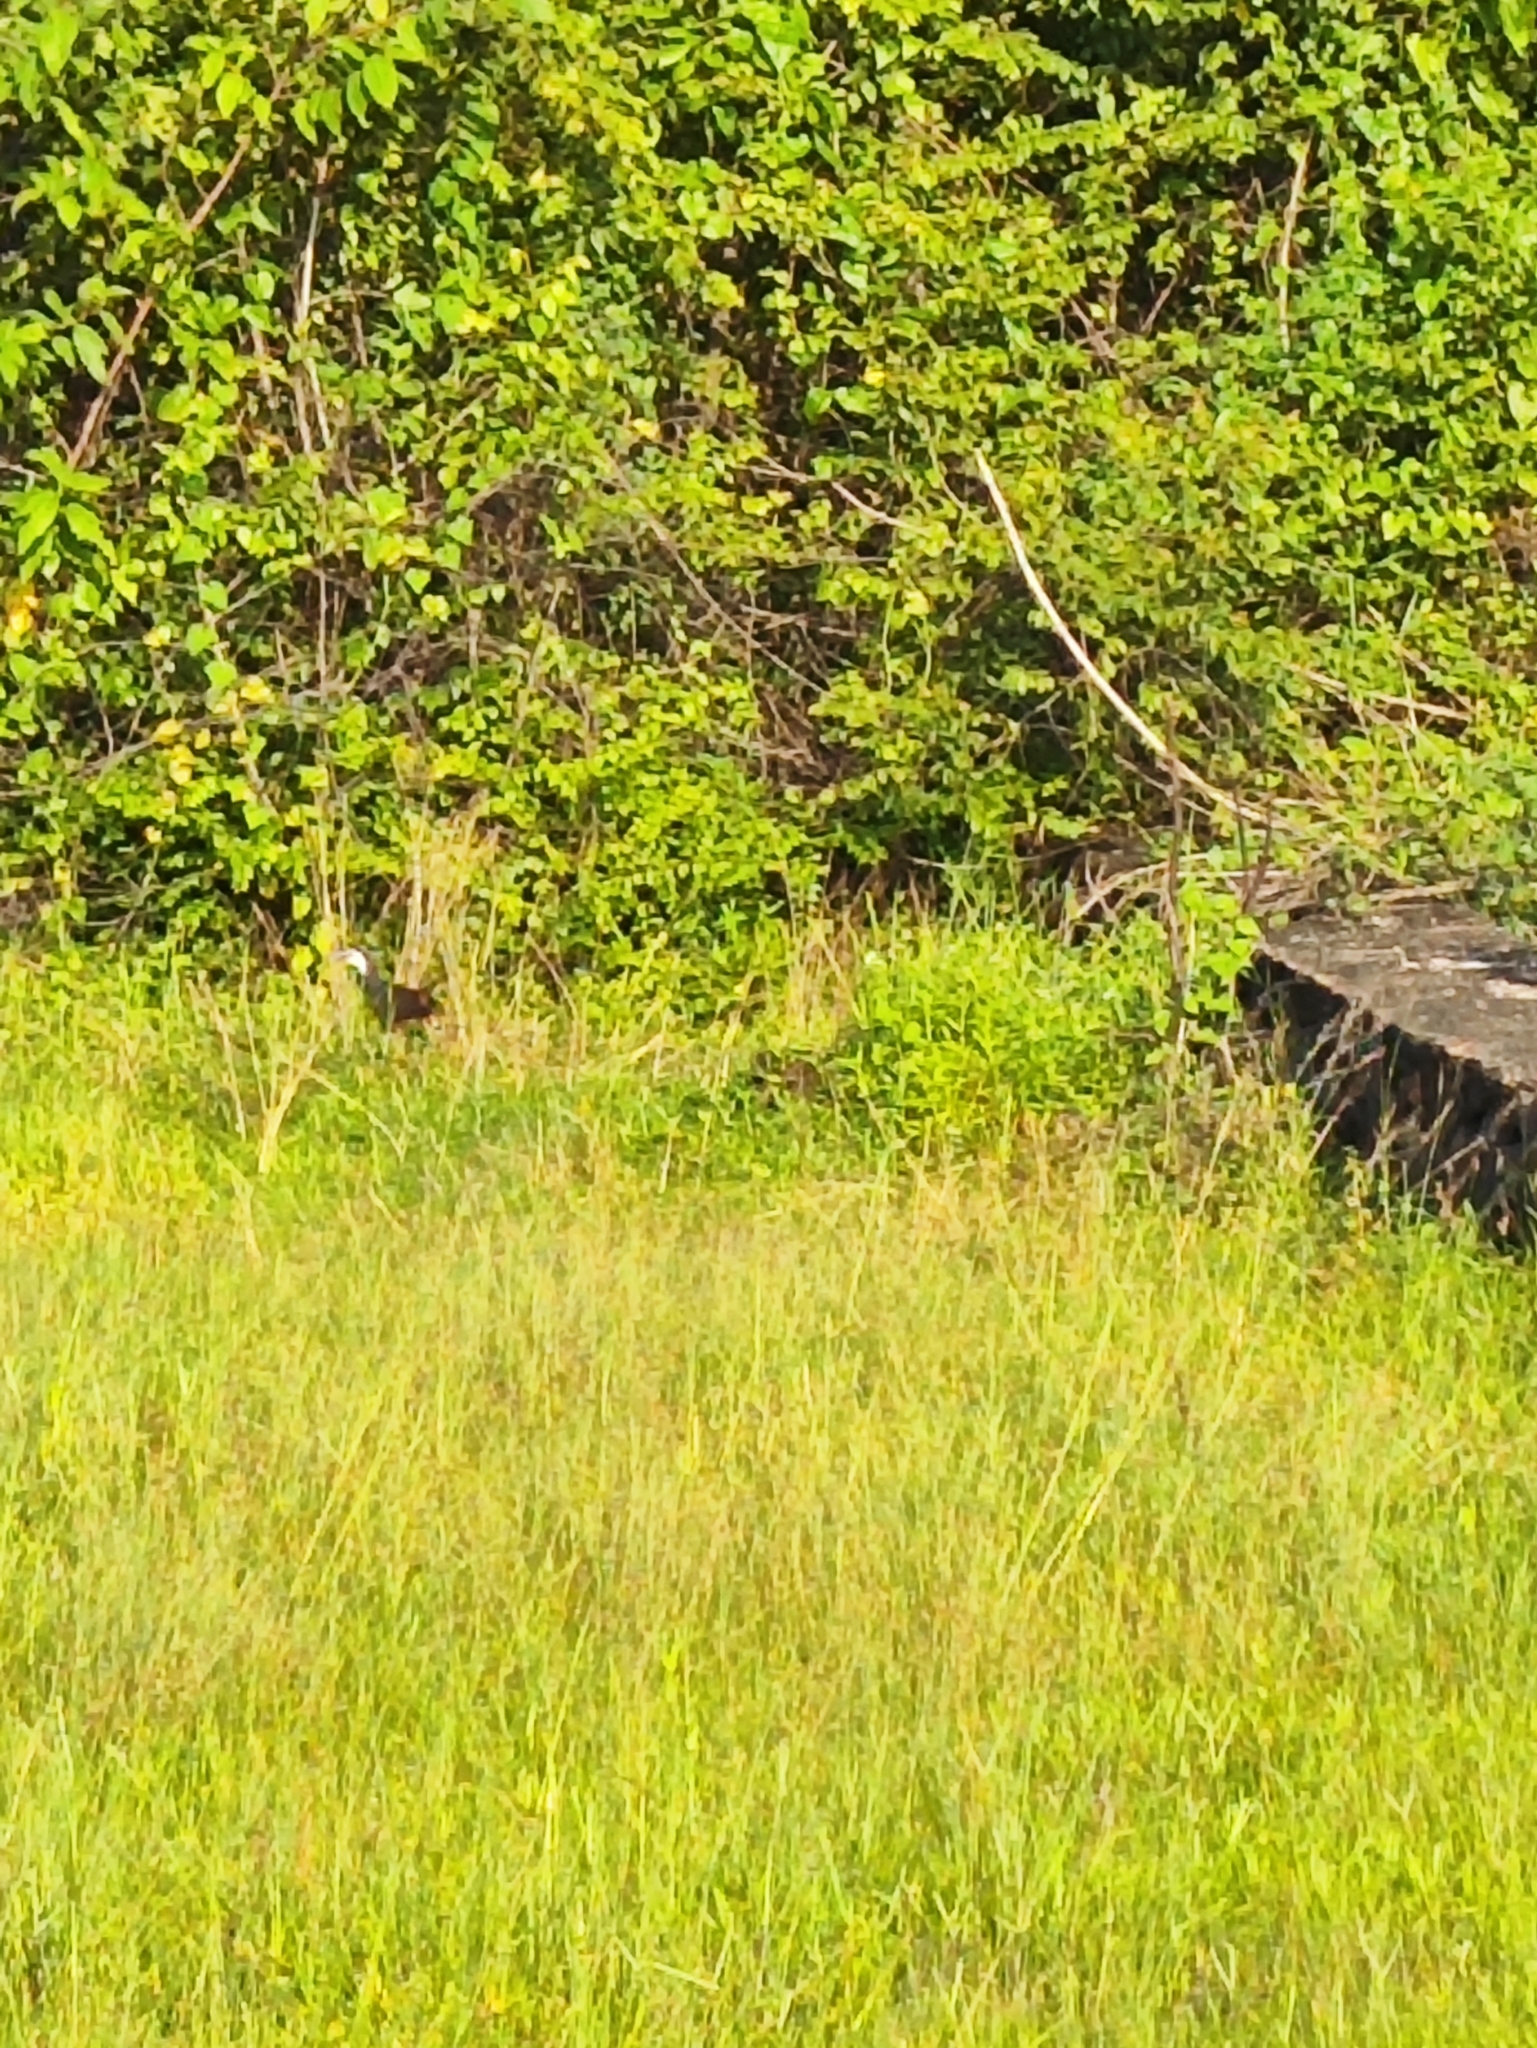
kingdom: Animalia
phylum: Chordata
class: Aves
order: Gruiformes
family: Rallidae
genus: Amaurornis
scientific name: Amaurornis phoenicurus
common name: White-breasted waterhen
